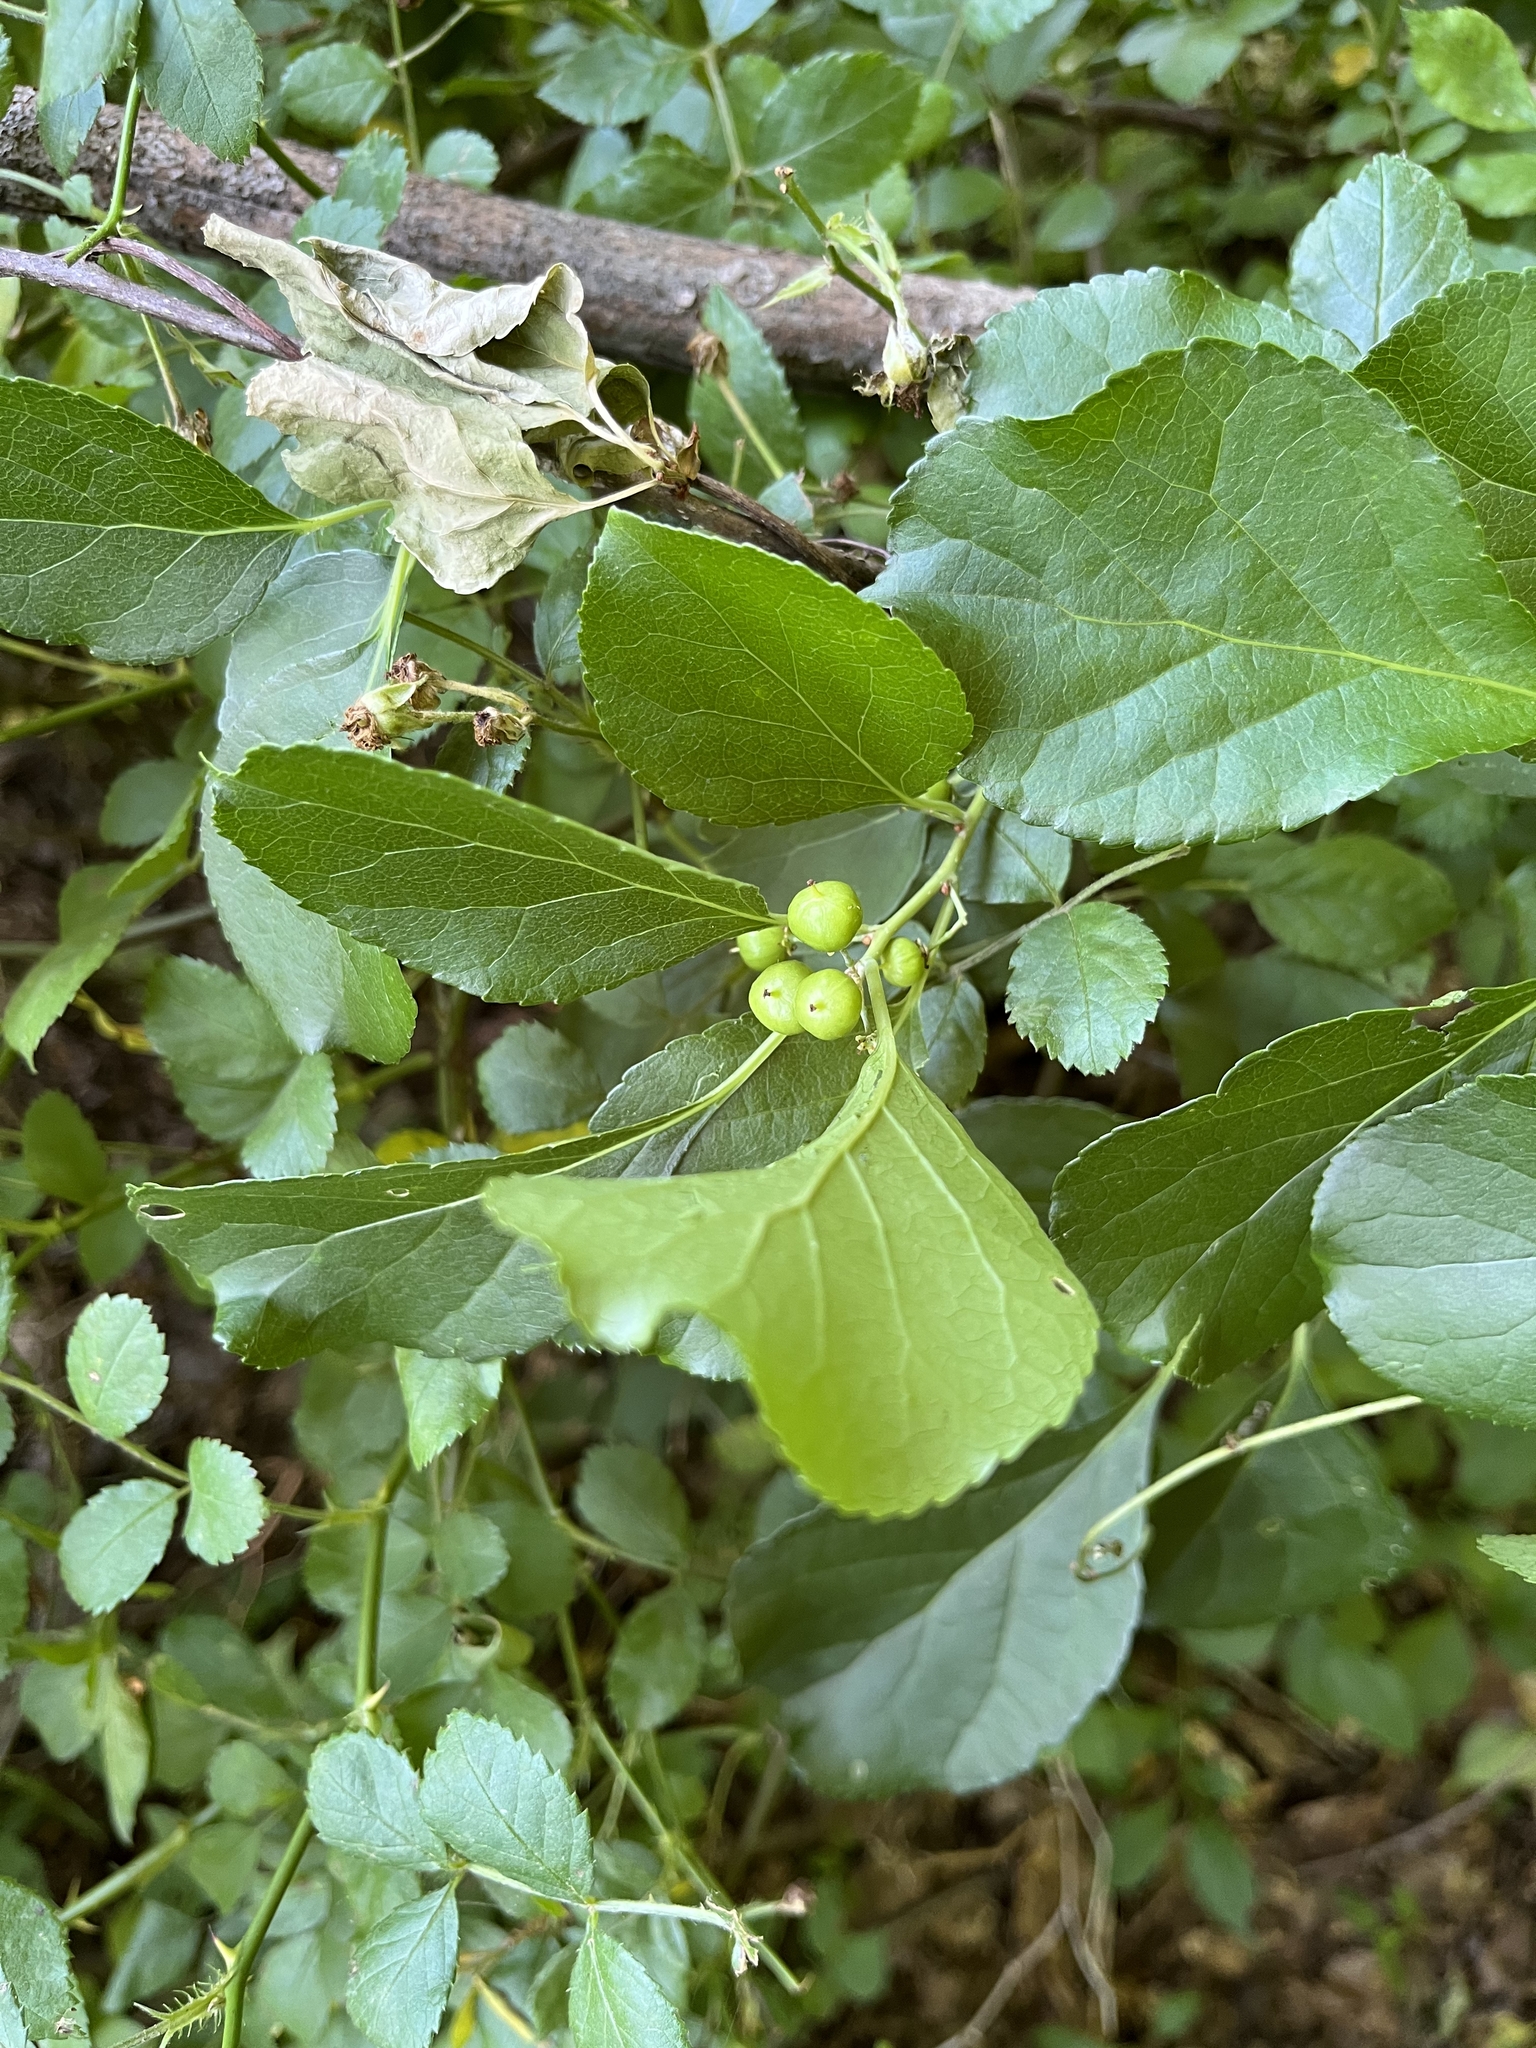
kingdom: Plantae
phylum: Tracheophyta
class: Magnoliopsida
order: Celastrales
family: Celastraceae
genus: Celastrus
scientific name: Celastrus orbiculatus
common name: Oriental bittersweet
